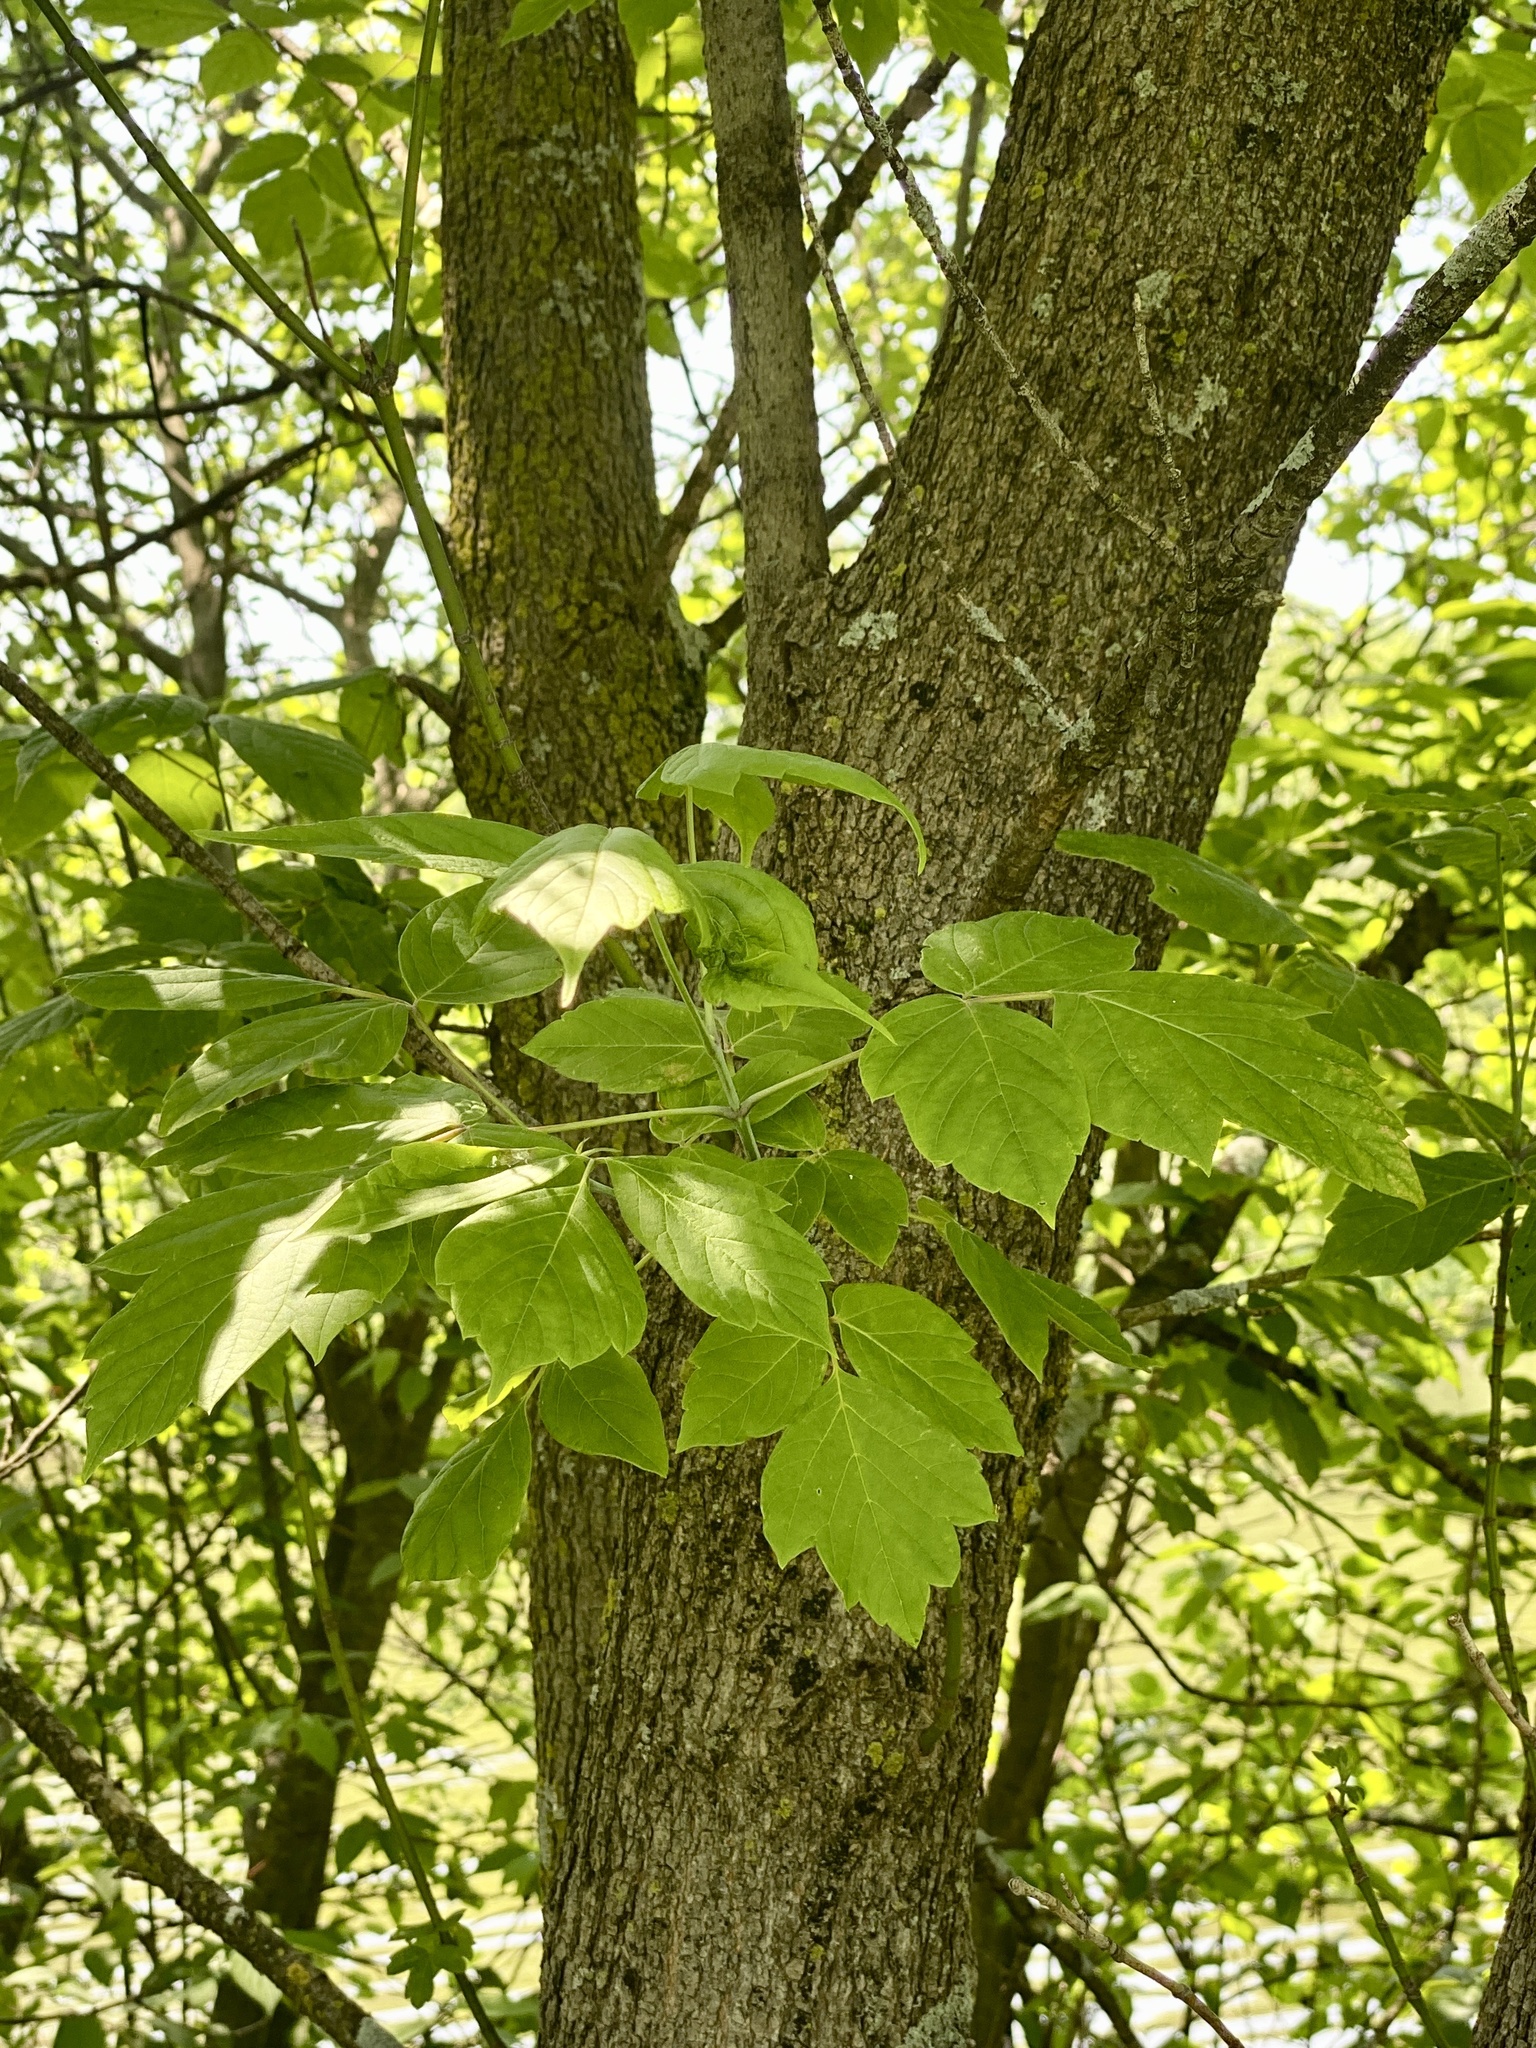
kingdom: Plantae
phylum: Tracheophyta
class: Magnoliopsida
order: Sapindales
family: Sapindaceae
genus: Acer
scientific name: Acer negundo
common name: Ashleaf maple
